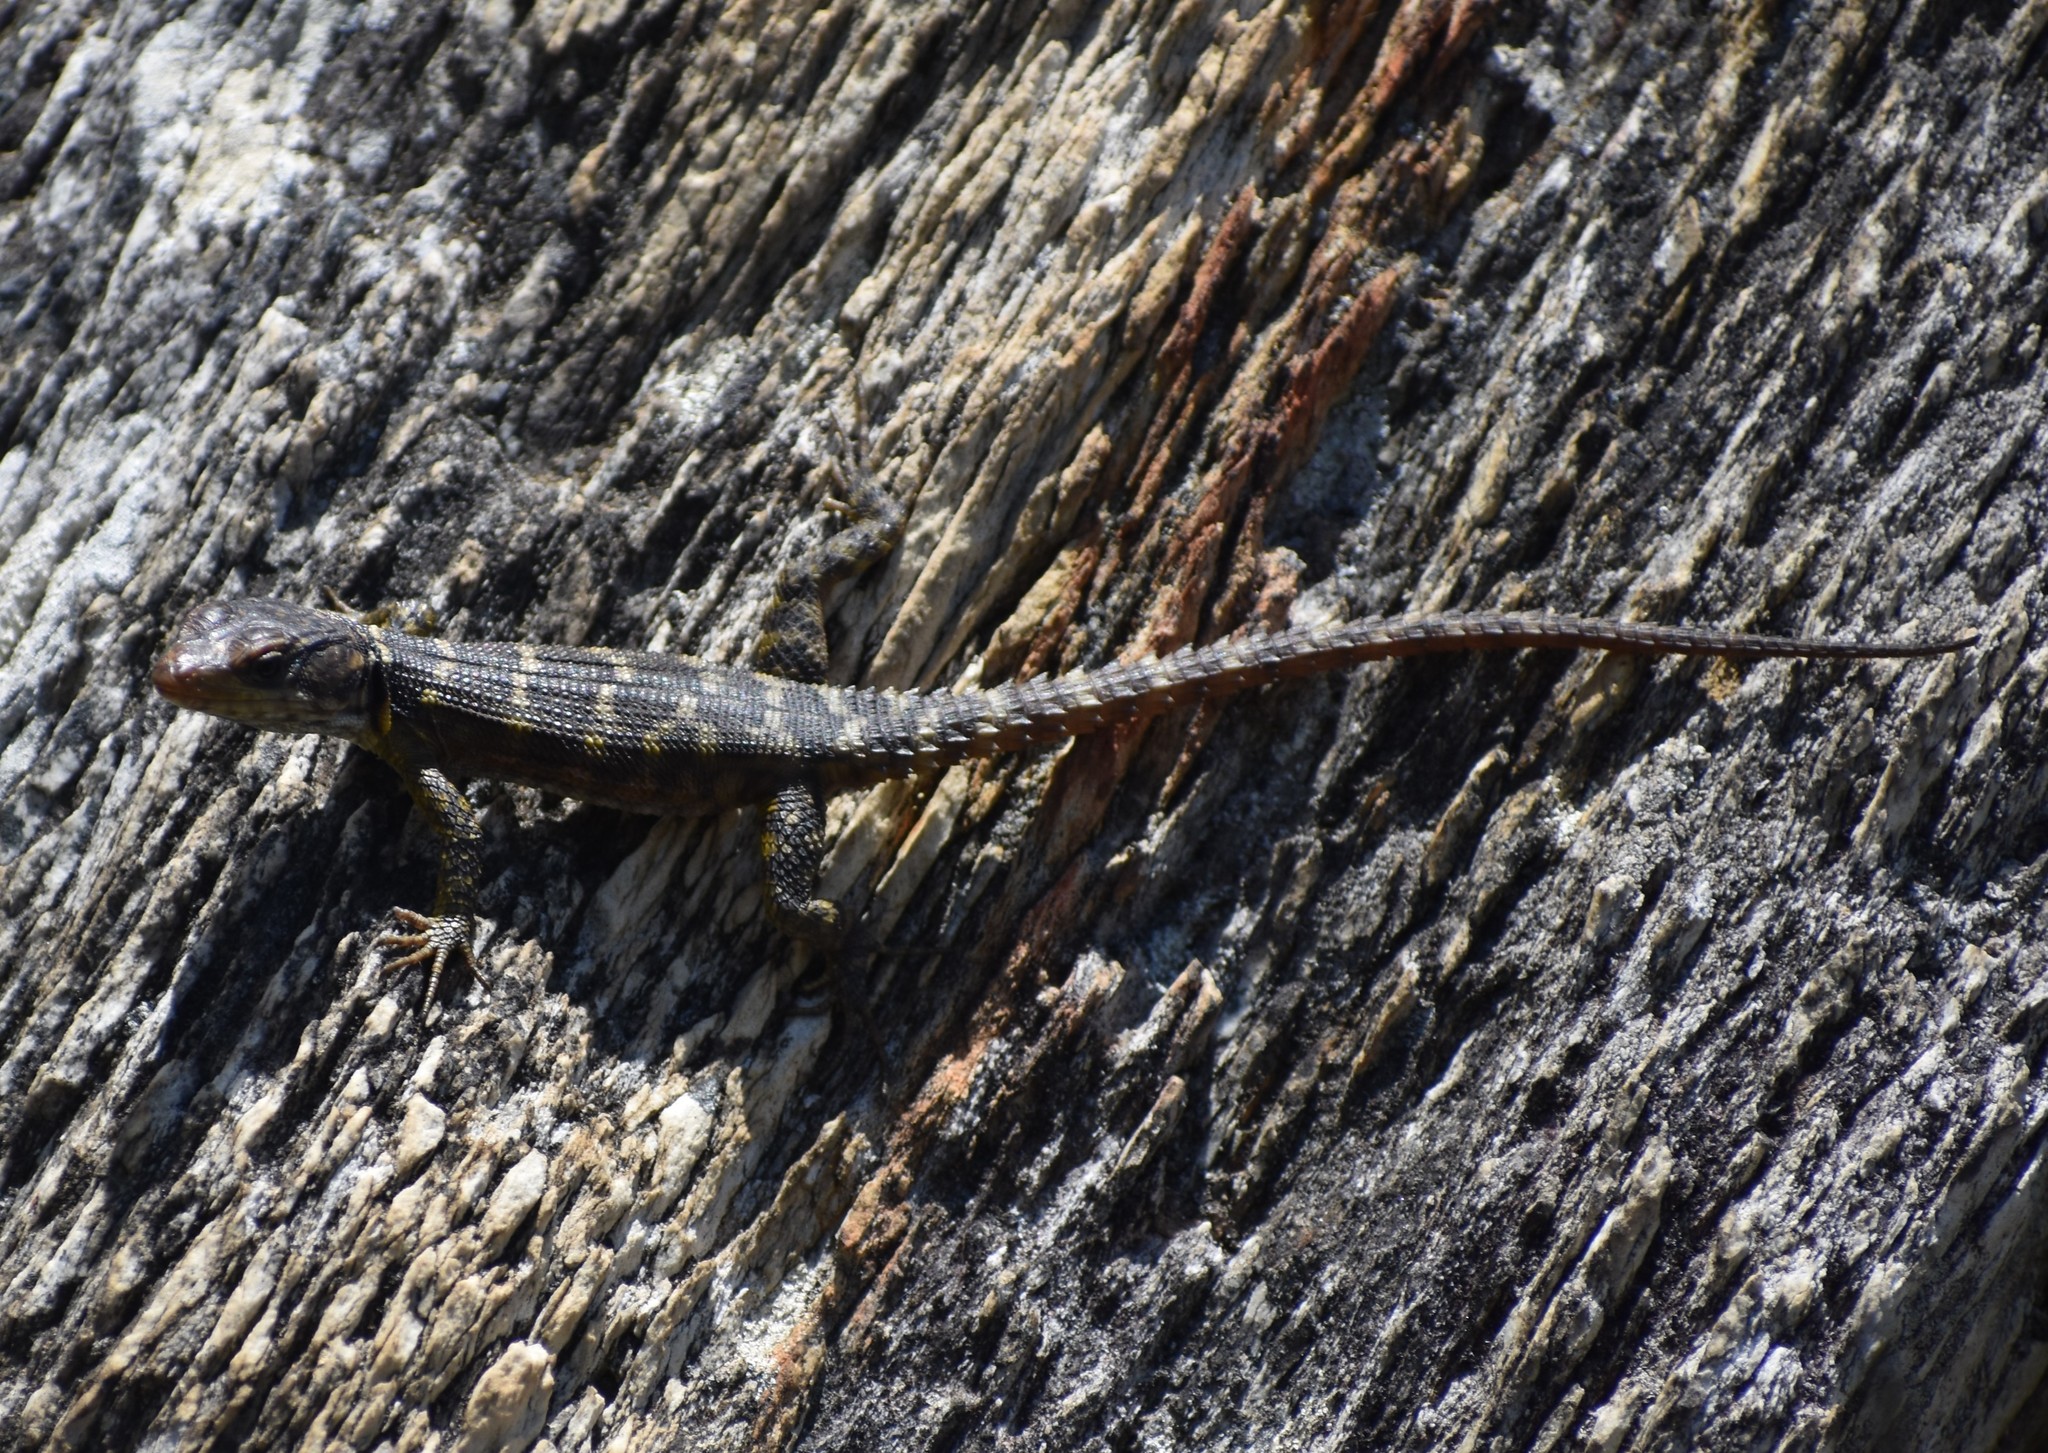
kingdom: Animalia
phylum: Chordata
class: Squamata
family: Cordylidae
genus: Pseudocordylus
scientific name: Pseudocordylus microlepidotus
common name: Cape crag lizard
